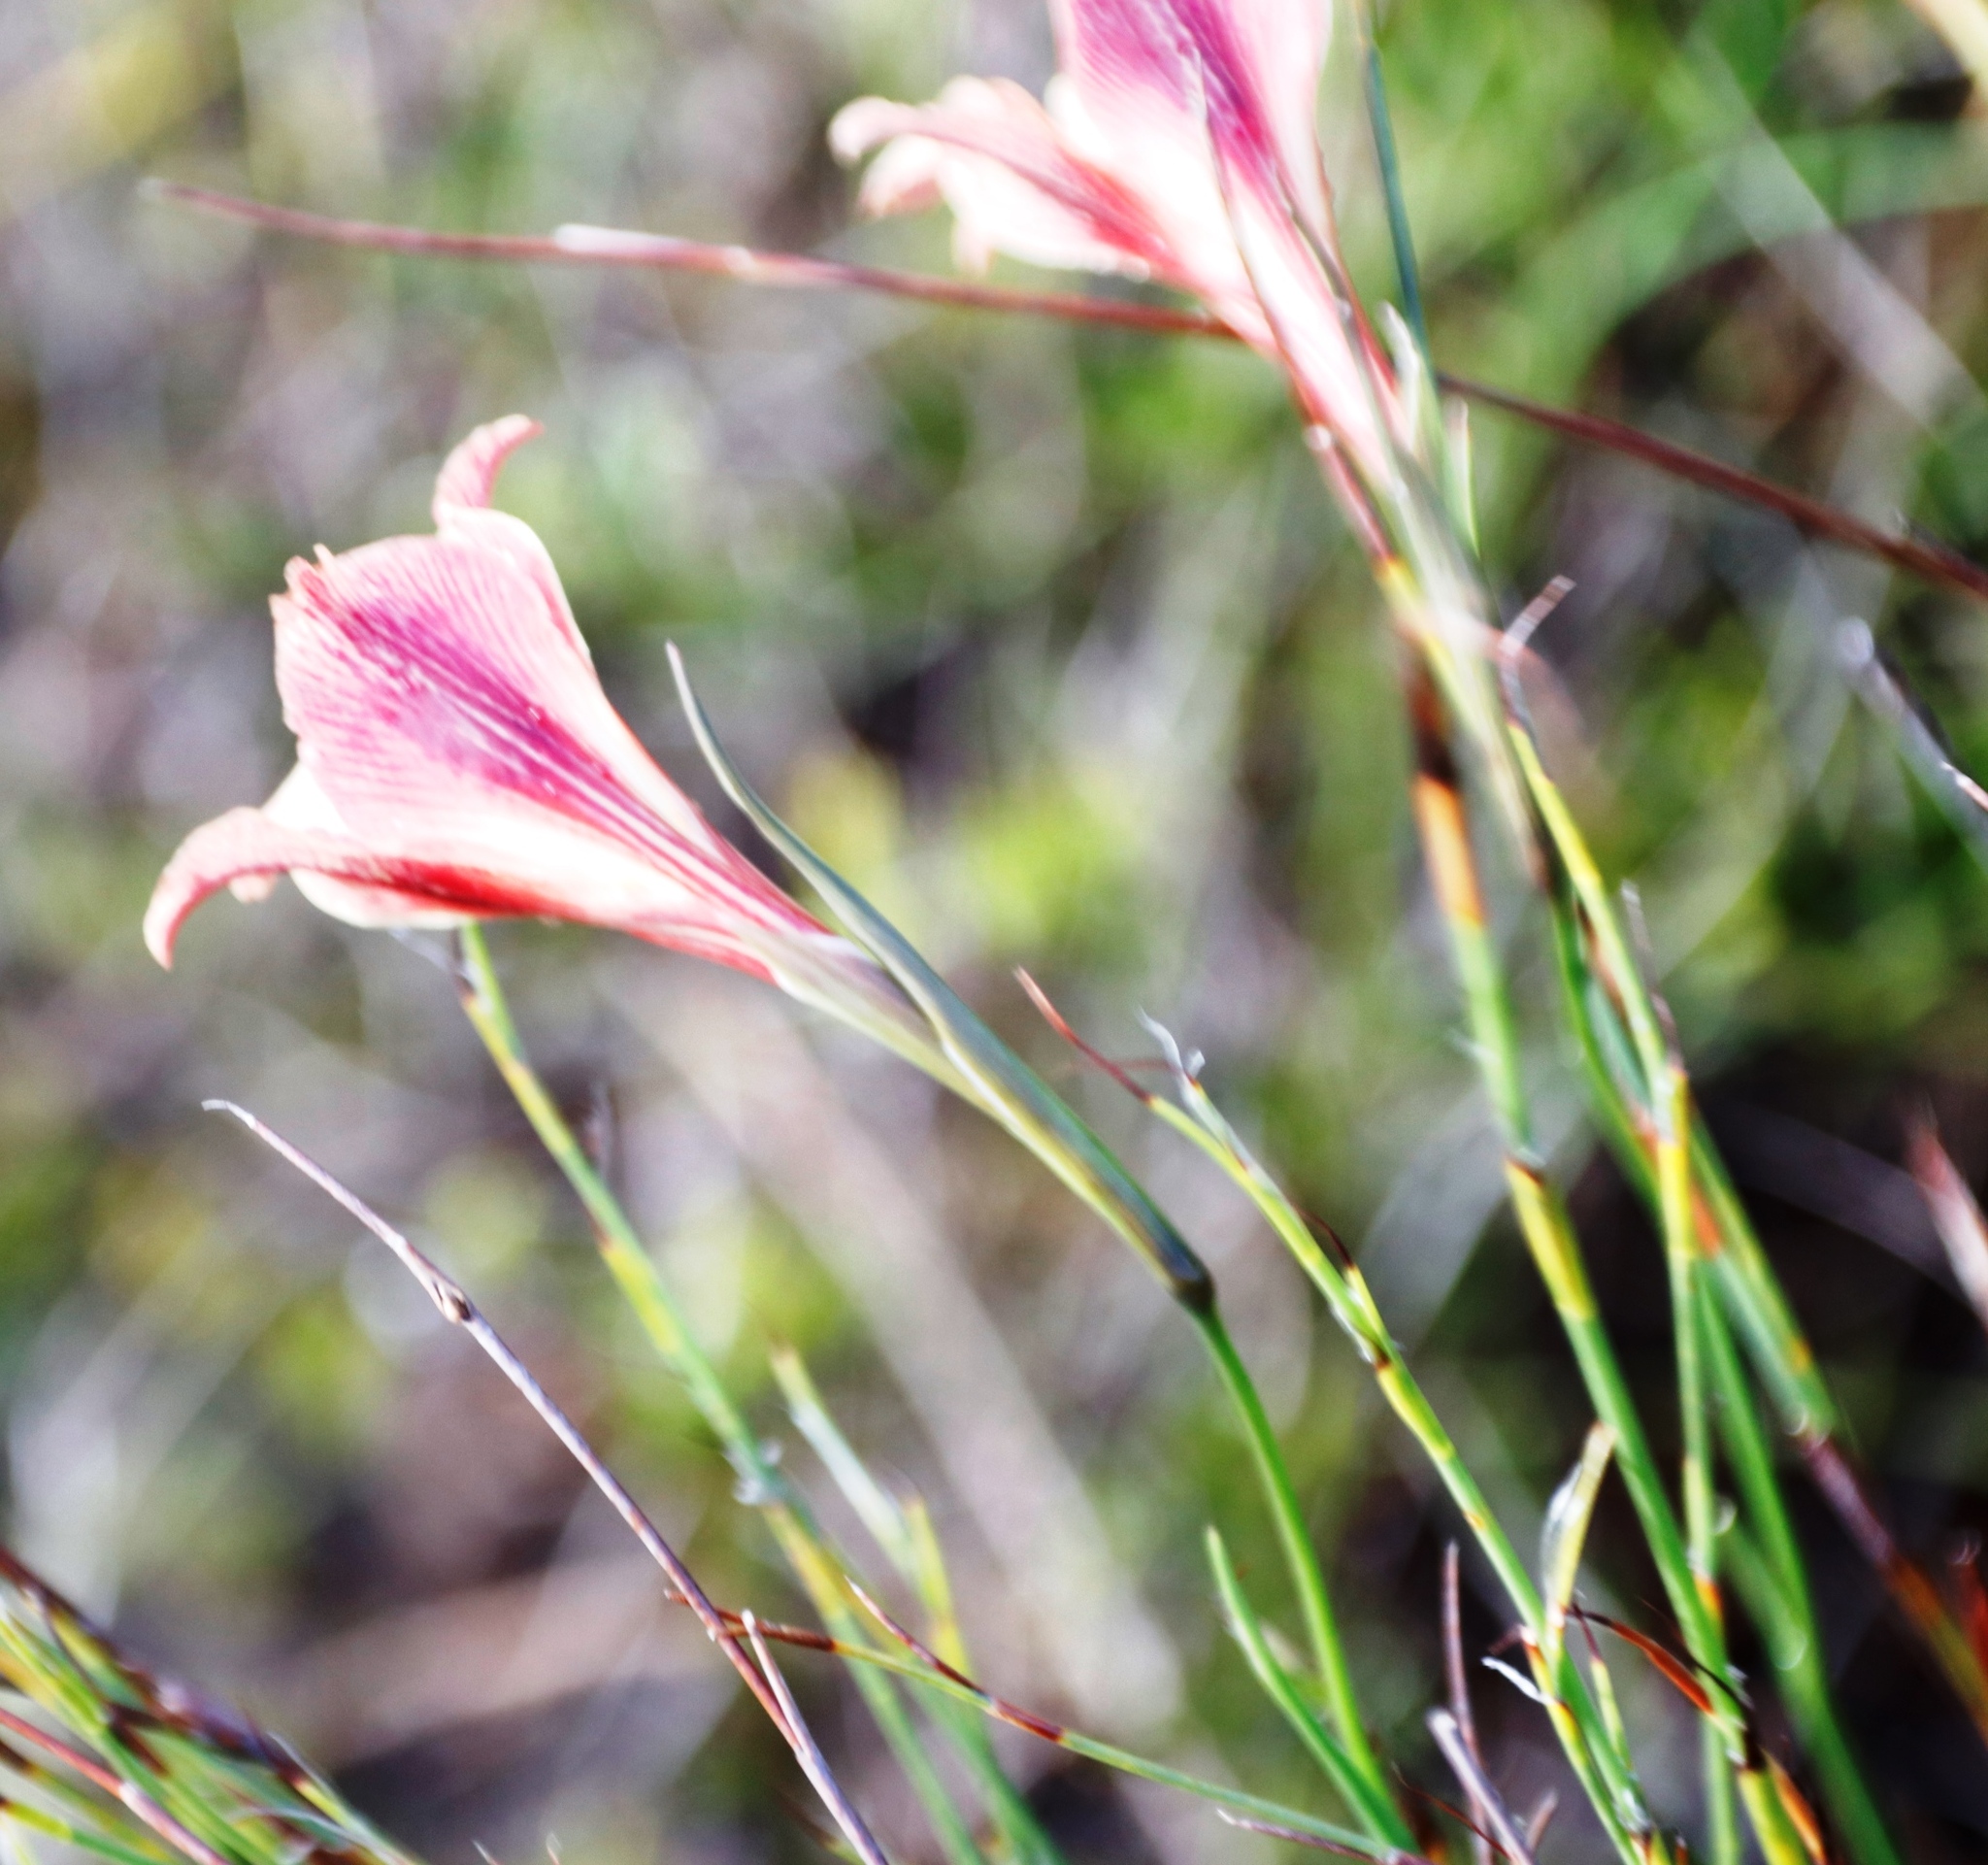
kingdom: Plantae
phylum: Tracheophyta
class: Liliopsida
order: Asparagales
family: Iridaceae
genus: Gladiolus
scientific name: Gladiolus maculatus
